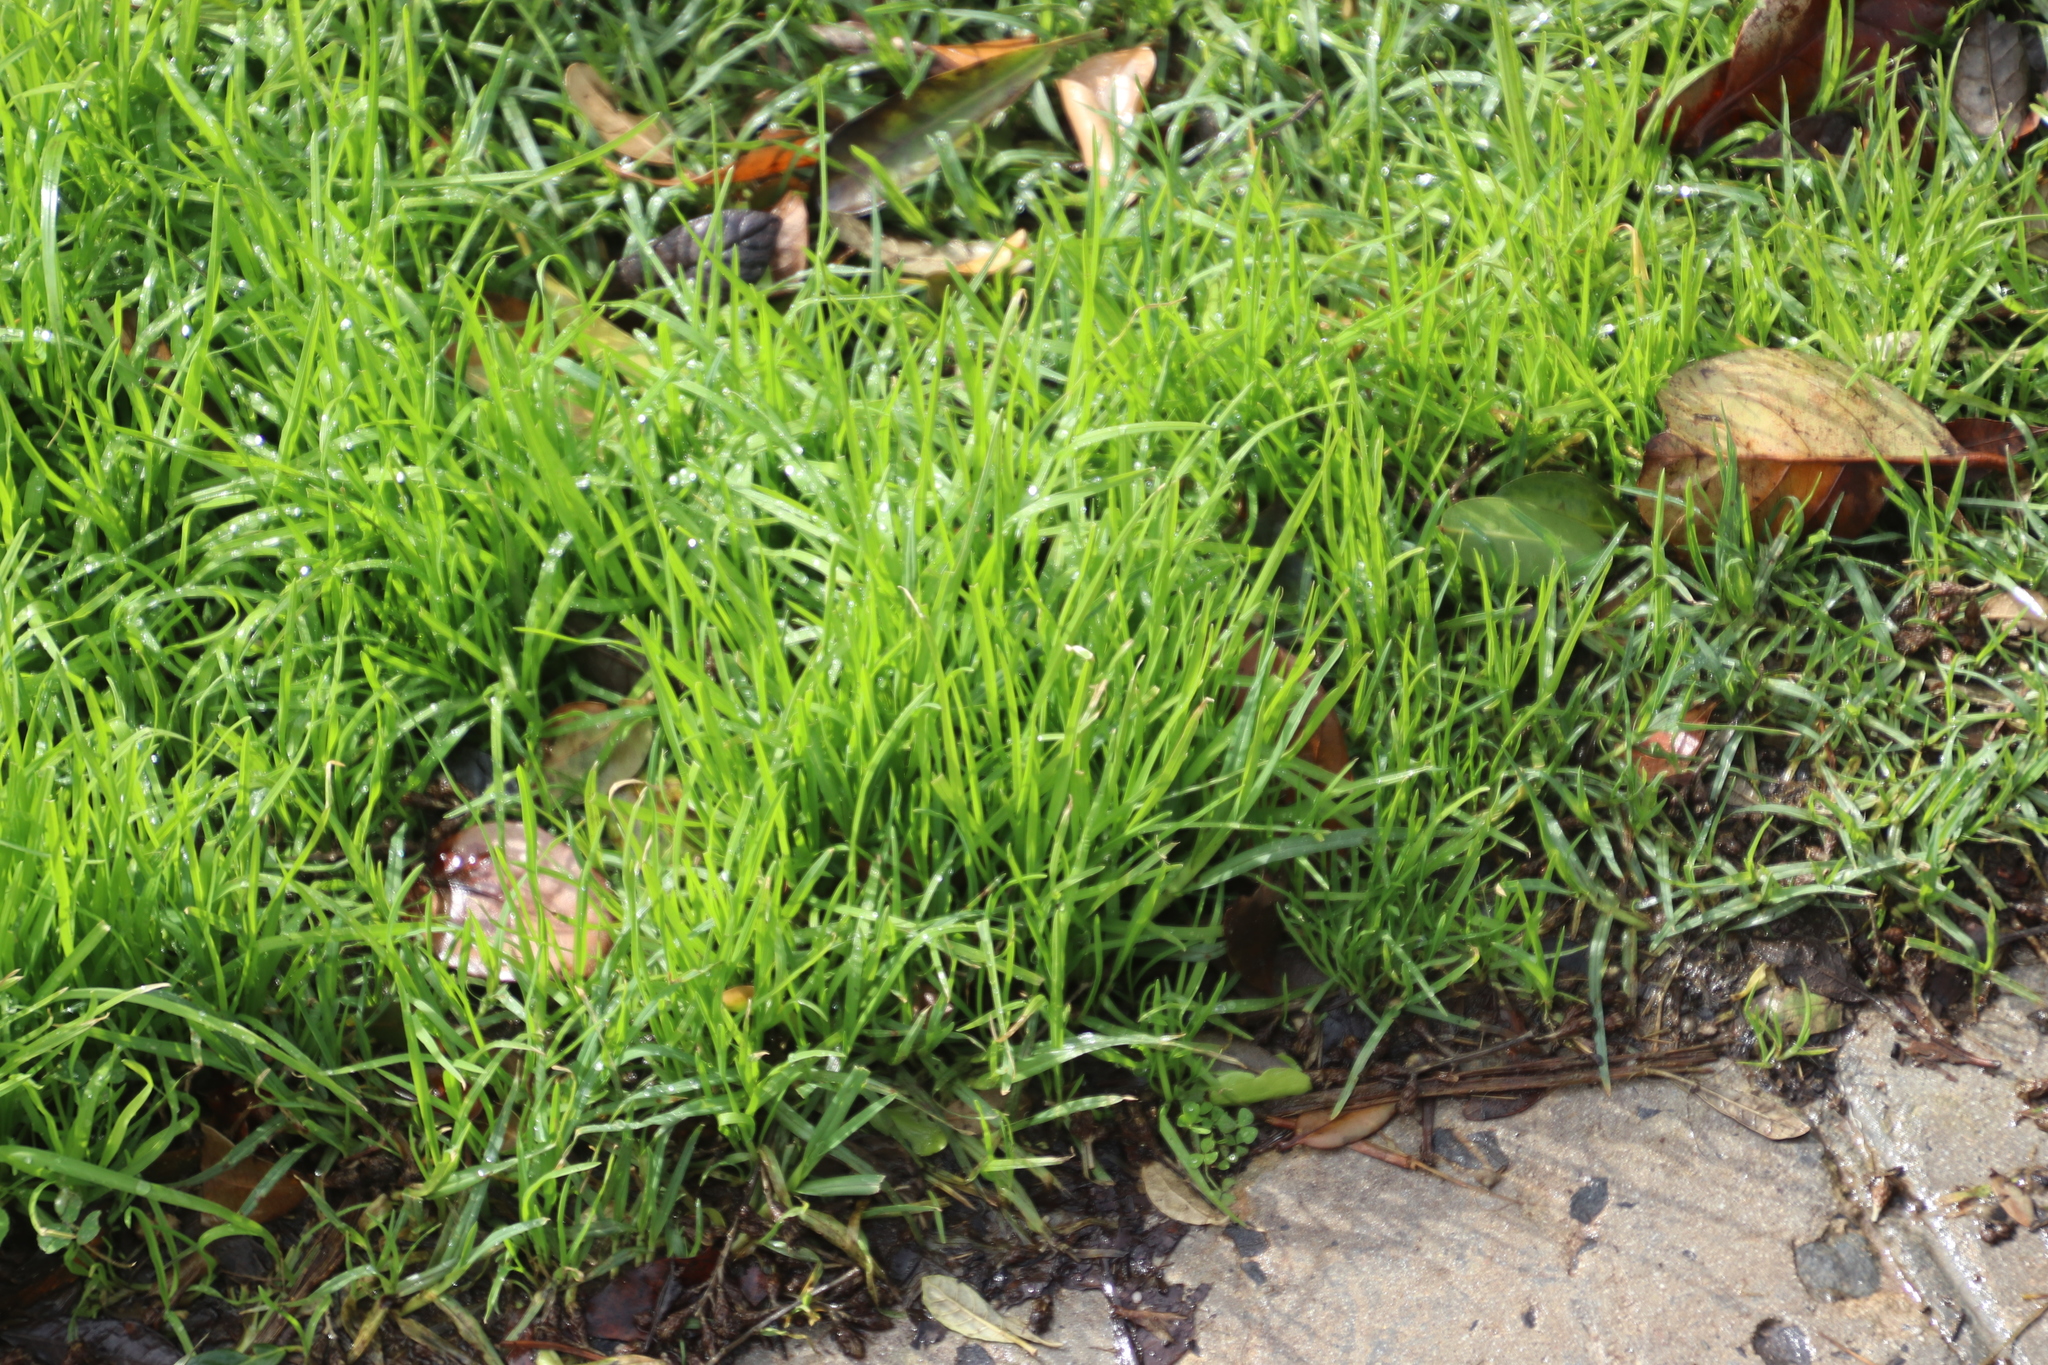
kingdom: Plantae
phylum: Tracheophyta
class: Liliopsida
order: Poales
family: Poaceae
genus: Poa
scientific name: Poa annua
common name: Annual bluegrass
